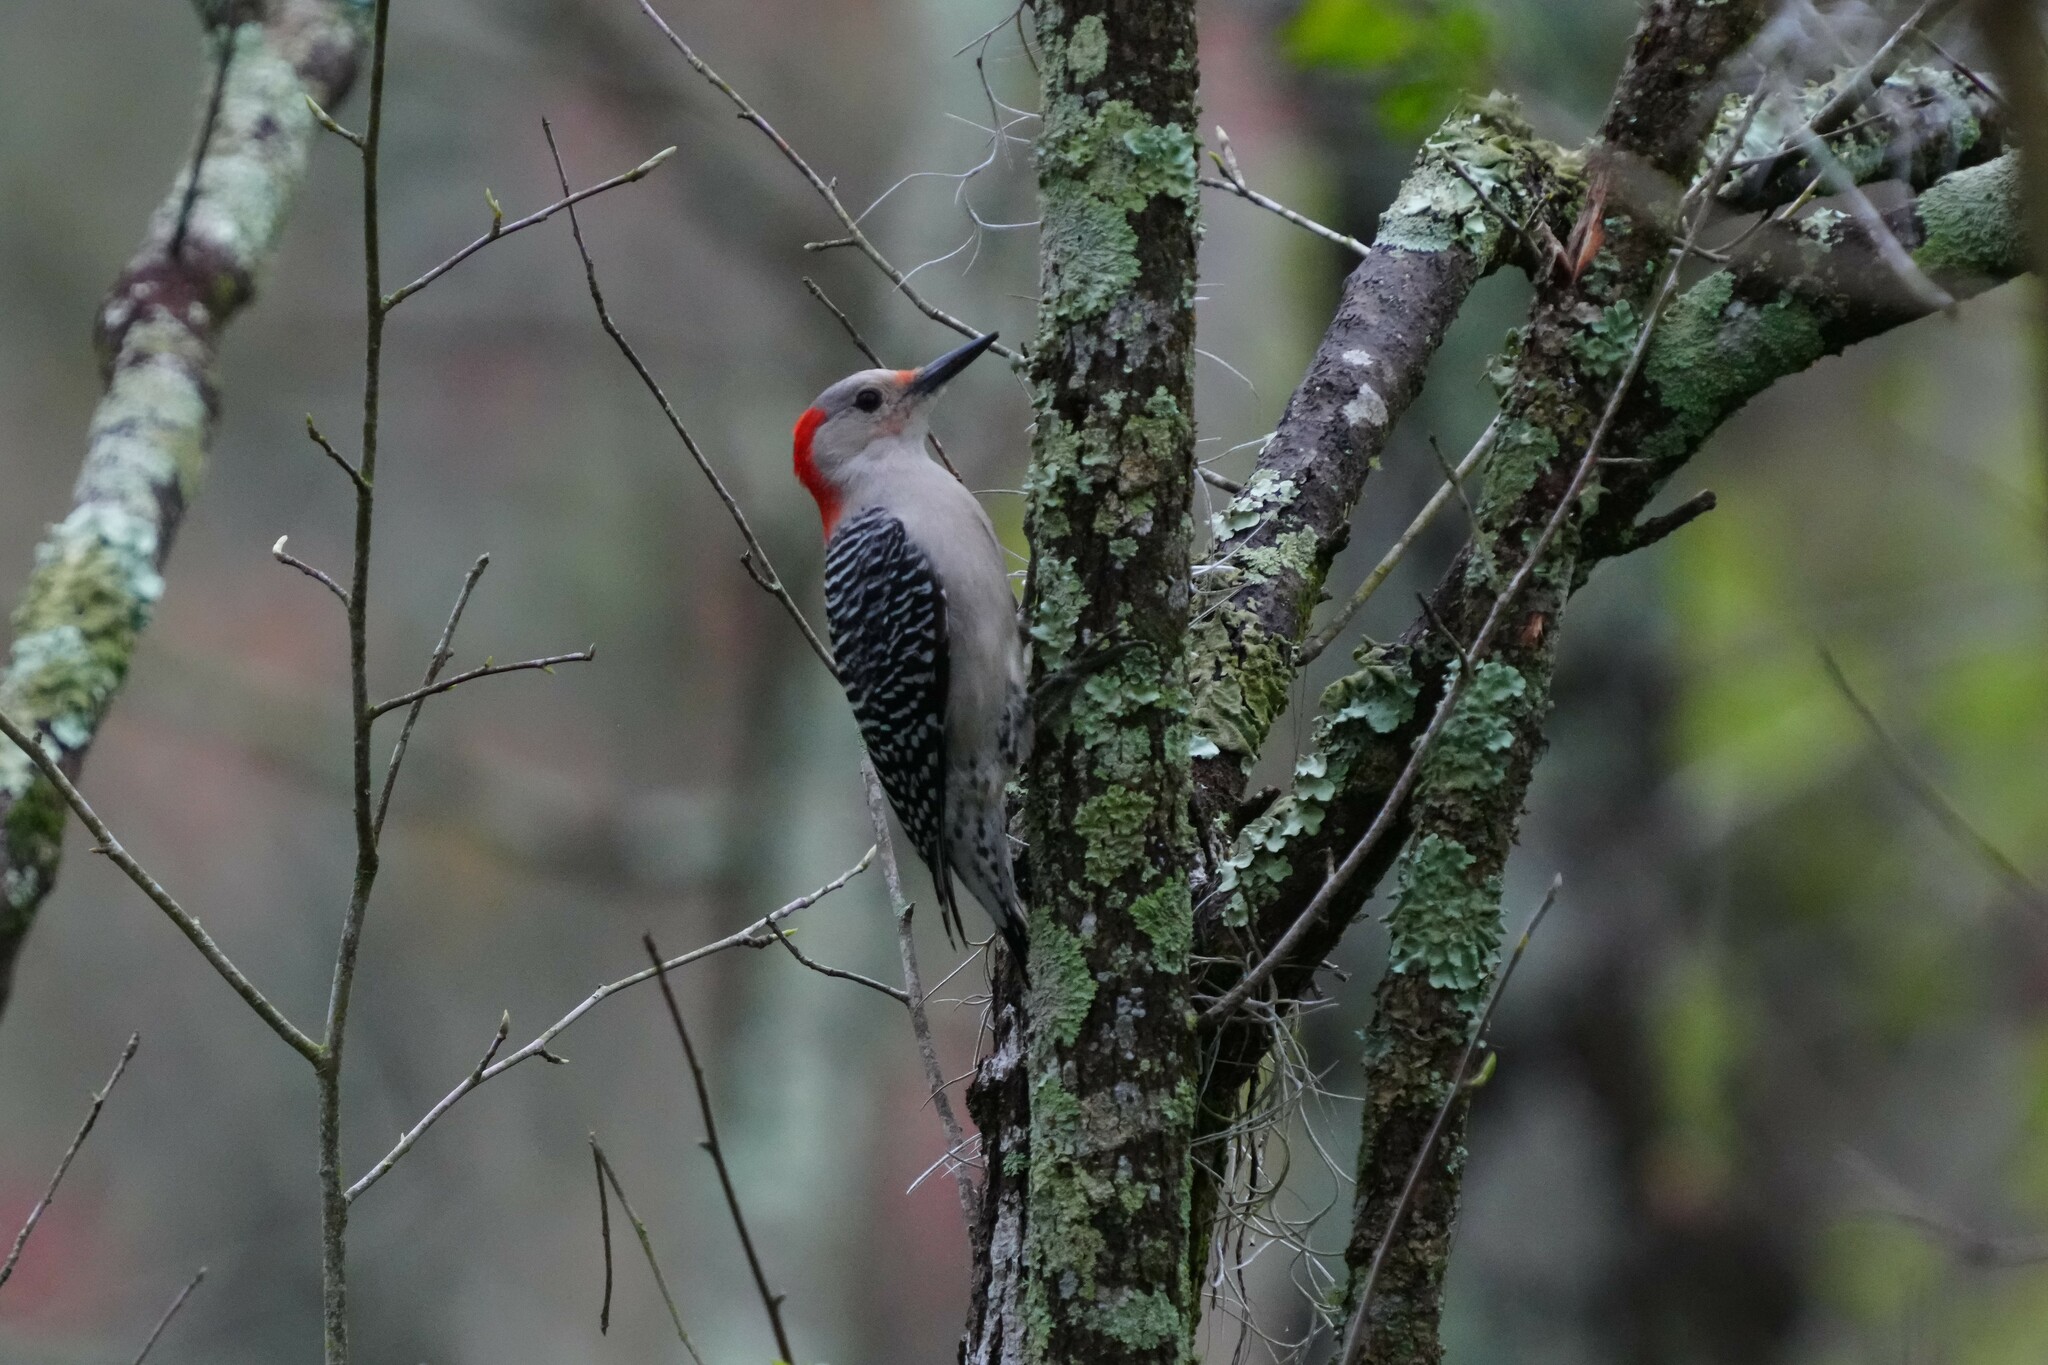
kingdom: Animalia
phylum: Chordata
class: Aves
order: Piciformes
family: Picidae
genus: Melanerpes
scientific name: Melanerpes carolinus
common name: Red-bellied woodpecker
